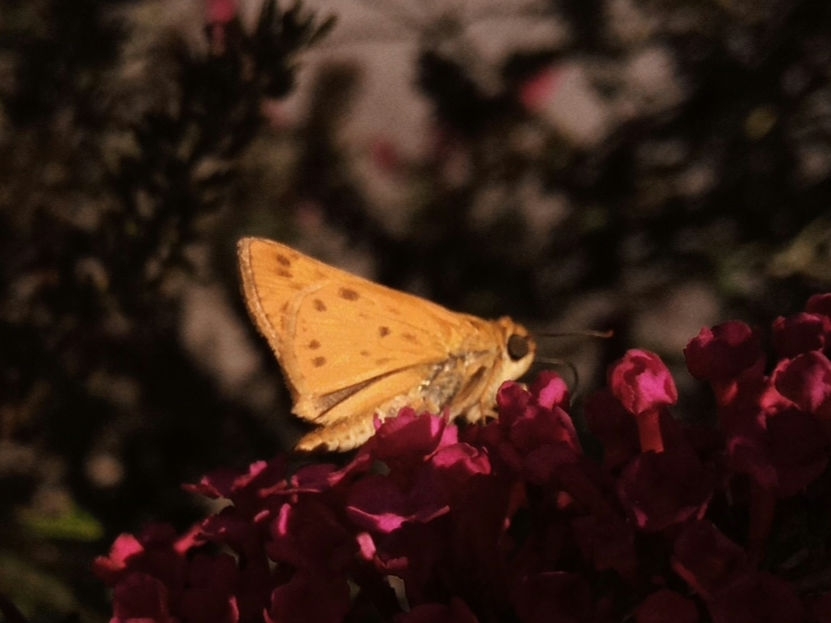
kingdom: Animalia
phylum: Arthropoda
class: Insecta
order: Lepidoptera
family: Hesperiidae
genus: Hylephila
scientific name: Hylephila phyleus
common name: Fiery skipper
